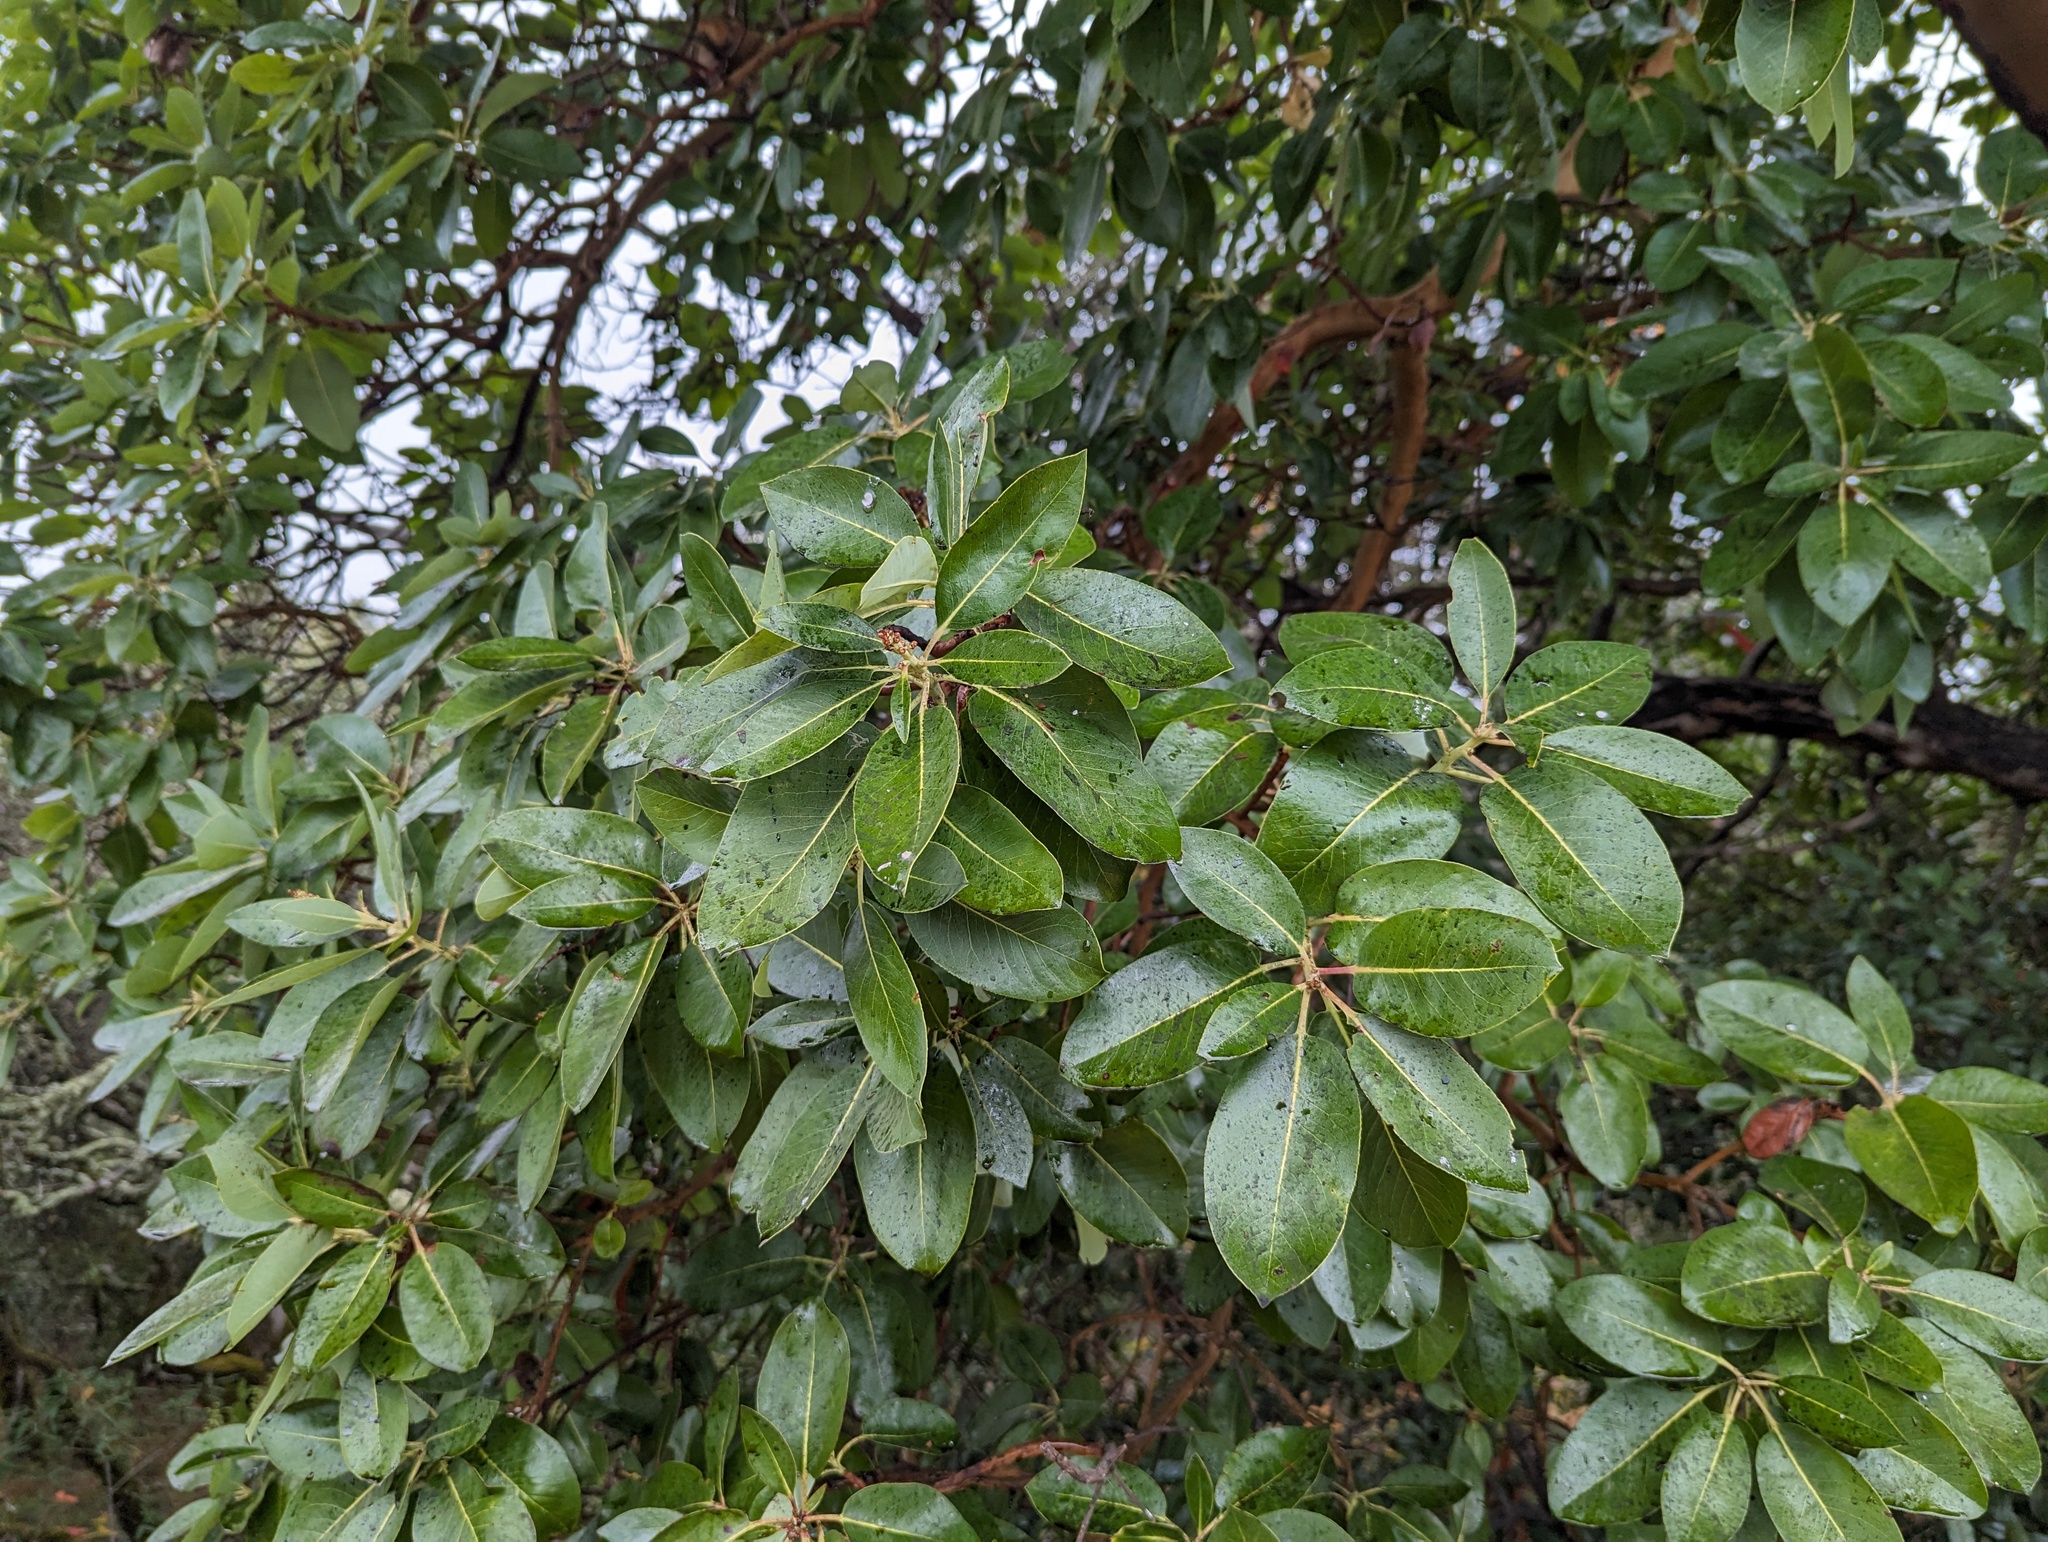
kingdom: Plantae
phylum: Tracheophyta
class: Magnoliopsida
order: Ericales
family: Ericaceae
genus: Arbutus
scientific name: Arbutus menziesii
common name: Pacific madrone
